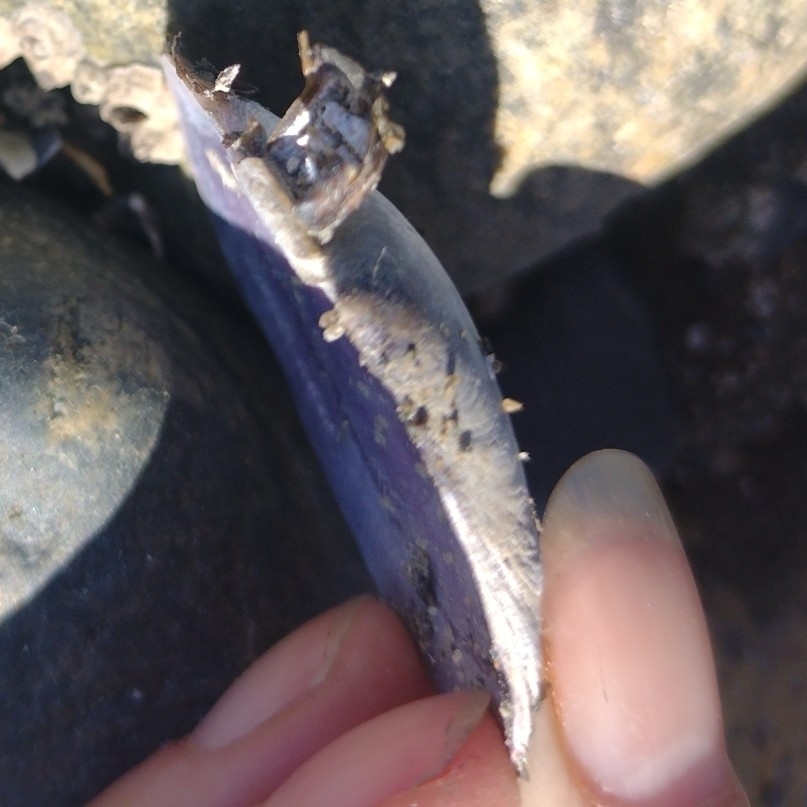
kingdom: Animalia
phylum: Mollusca
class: Bivalvia
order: Cardiida
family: Psammobiidae
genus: Nuttallia
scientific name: Nuttallia obscurata
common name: Purple mahogany-clam
